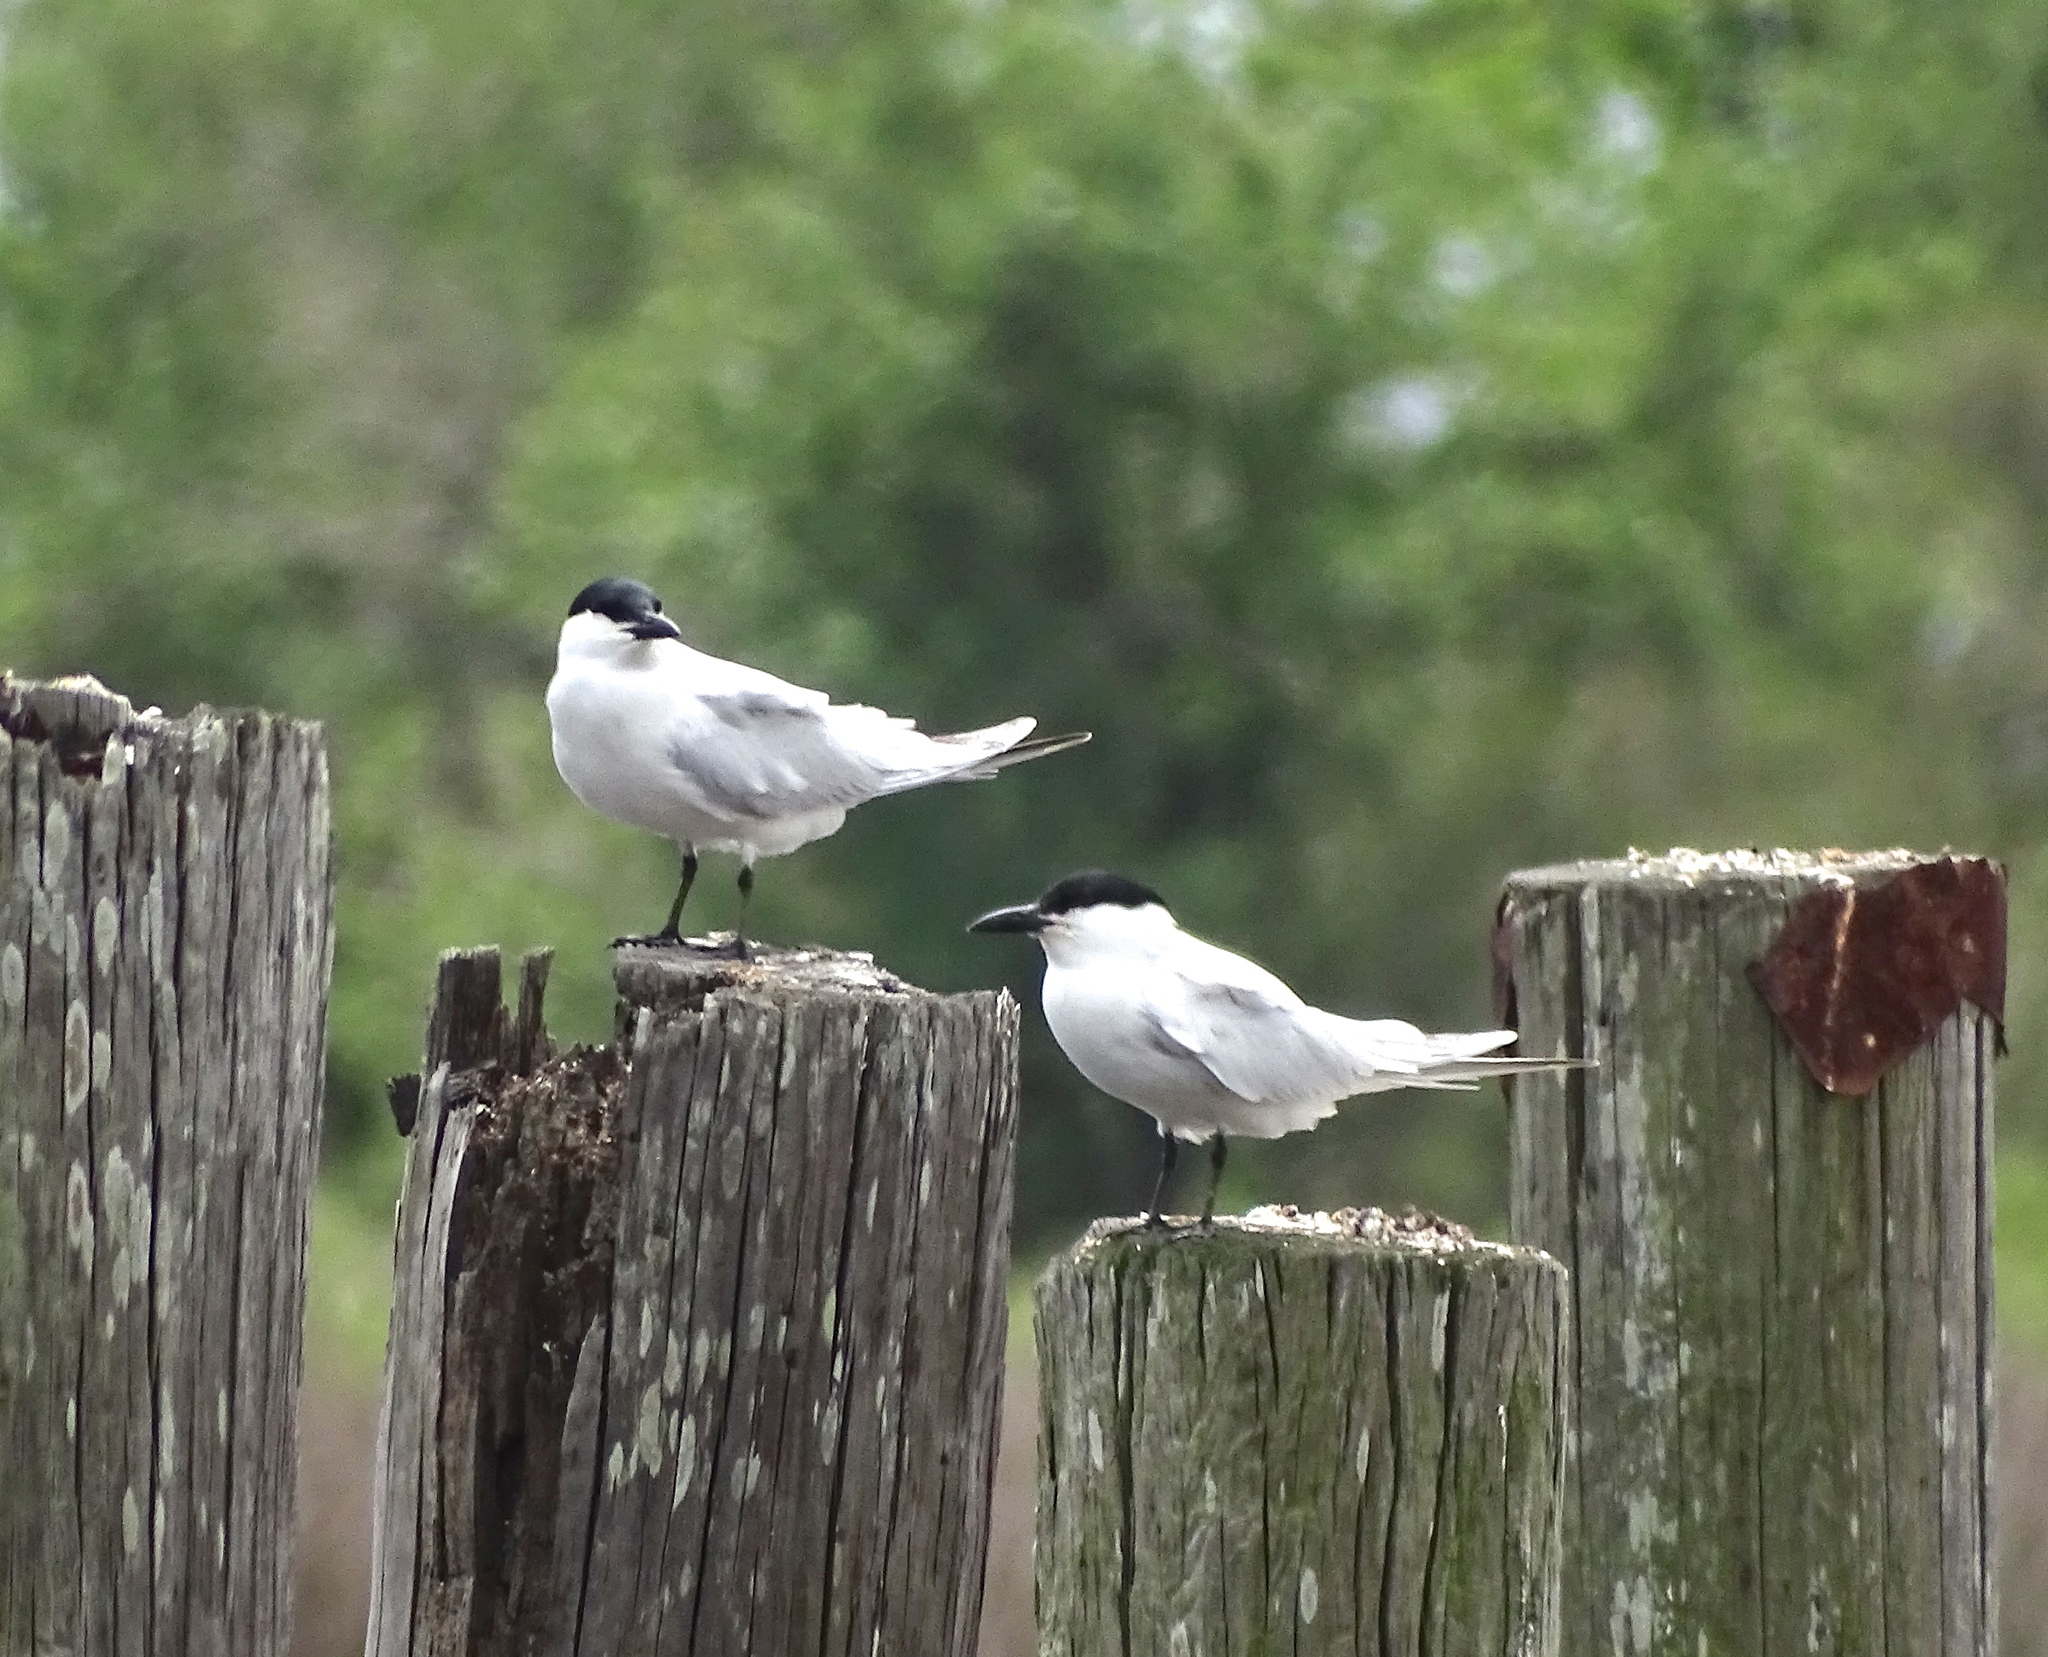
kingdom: Animalia
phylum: Chordata
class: Aves
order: Charadriiformes
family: Laridae
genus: Gelochelidon
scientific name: Gelochelidon nilotica
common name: Gull-billed tern
